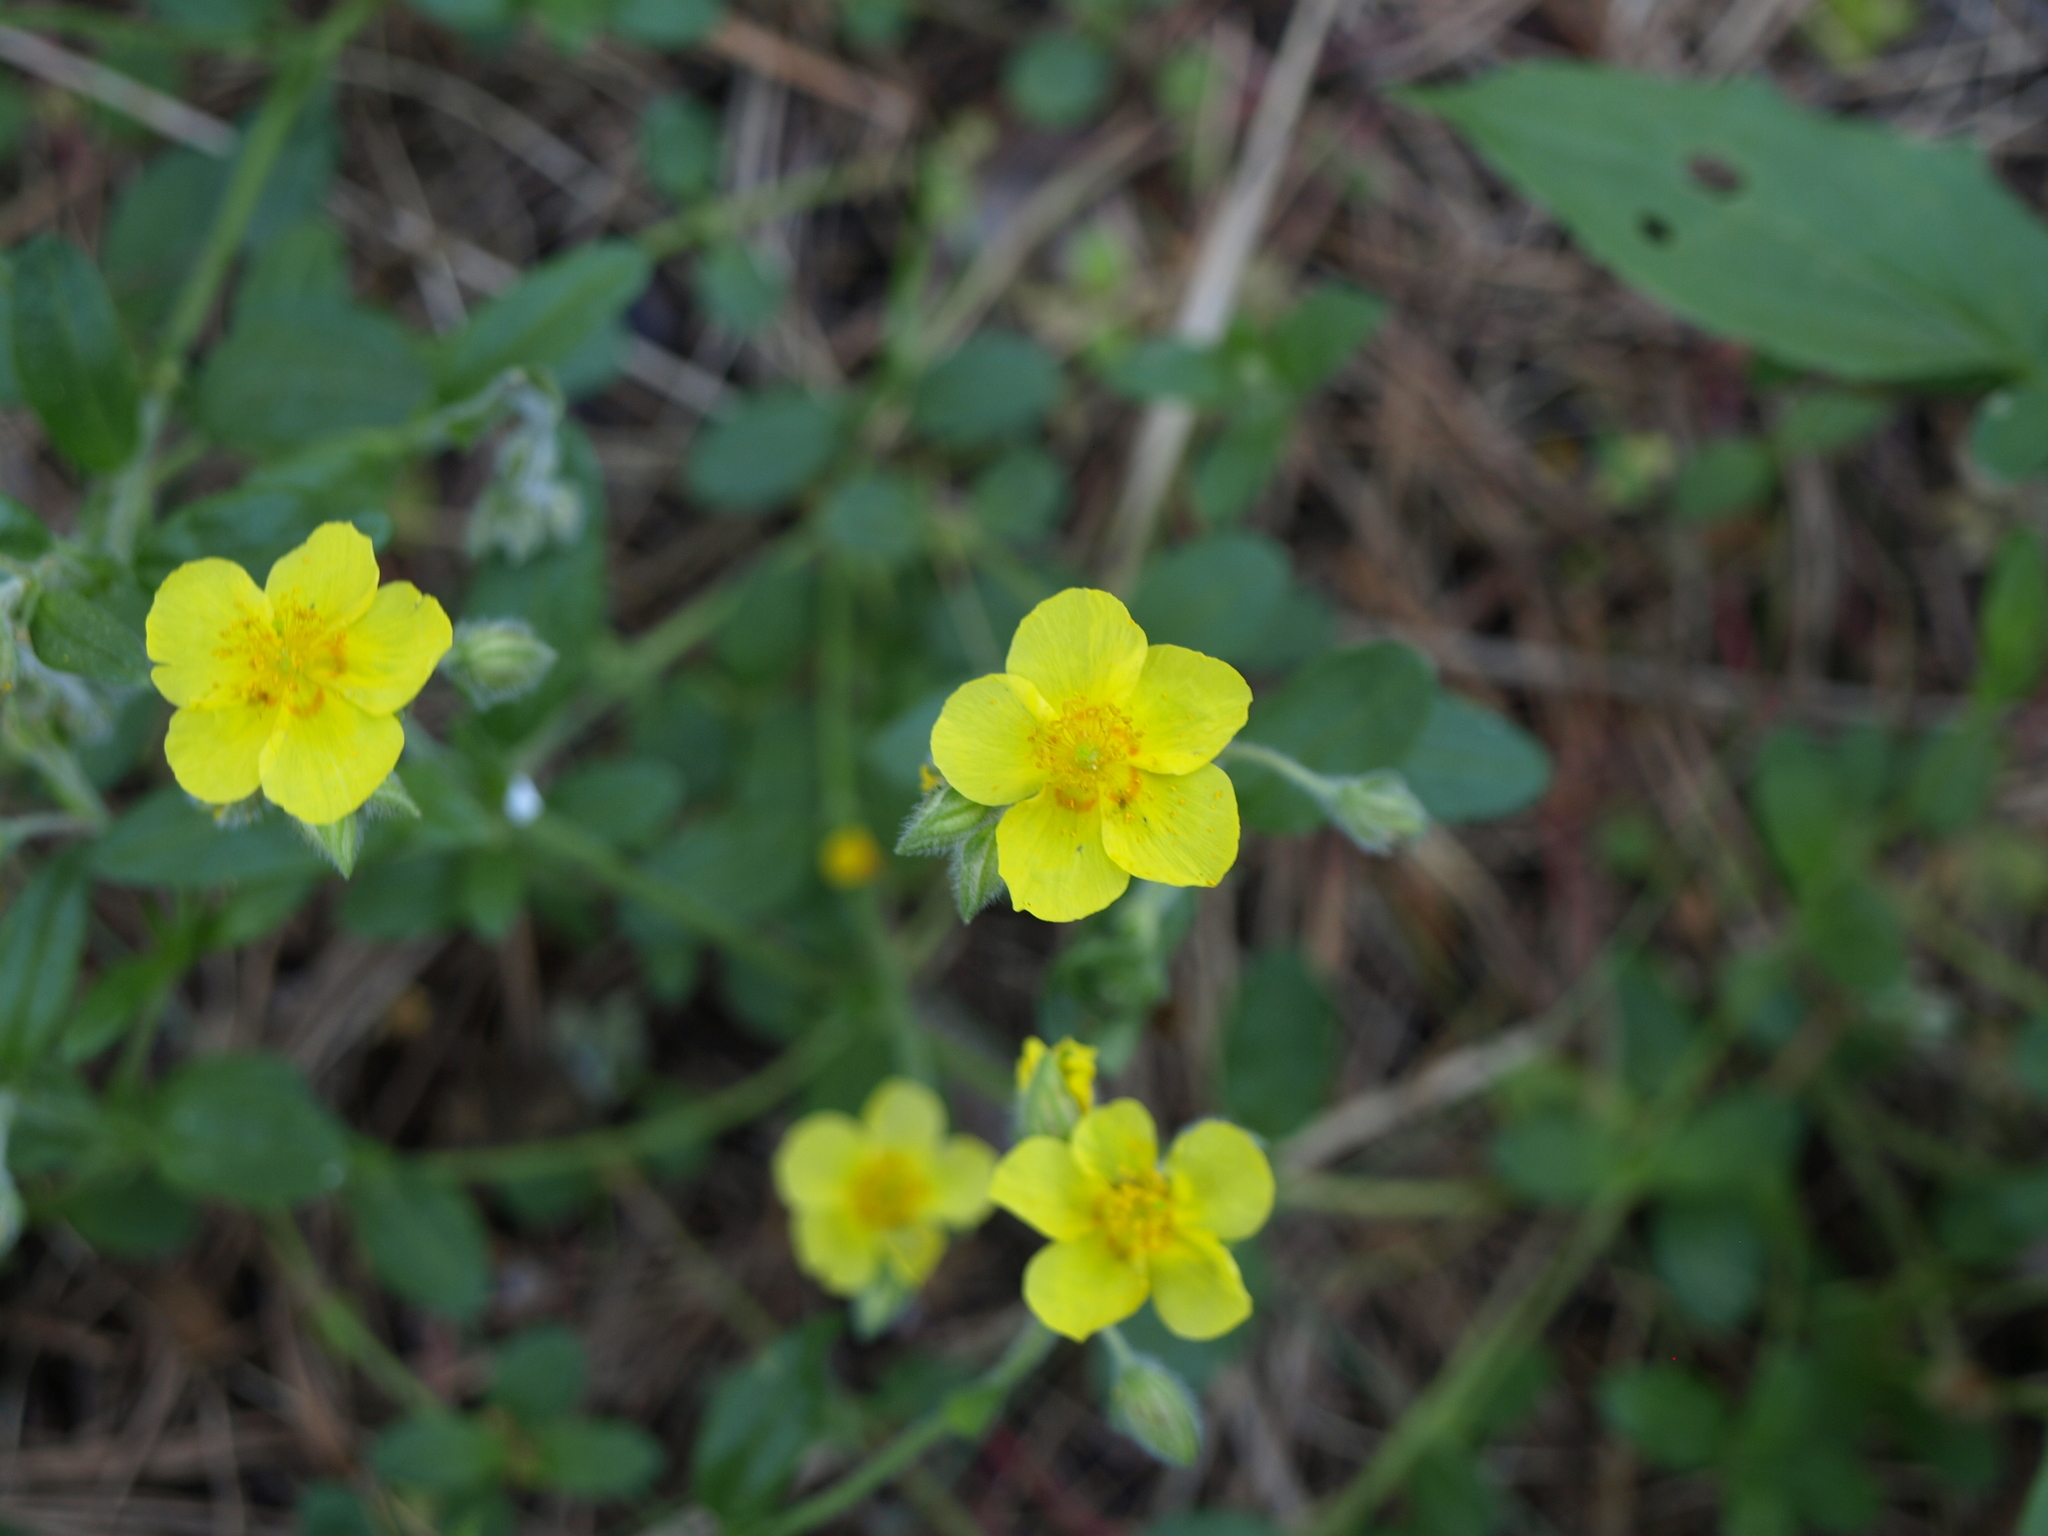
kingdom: Plantae
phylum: Tracheophyta
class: Magnoliopsida
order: Malvales
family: Cistaceae
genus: Helianthemum
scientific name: Helianthemum nummularium
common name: Common rock-rose
